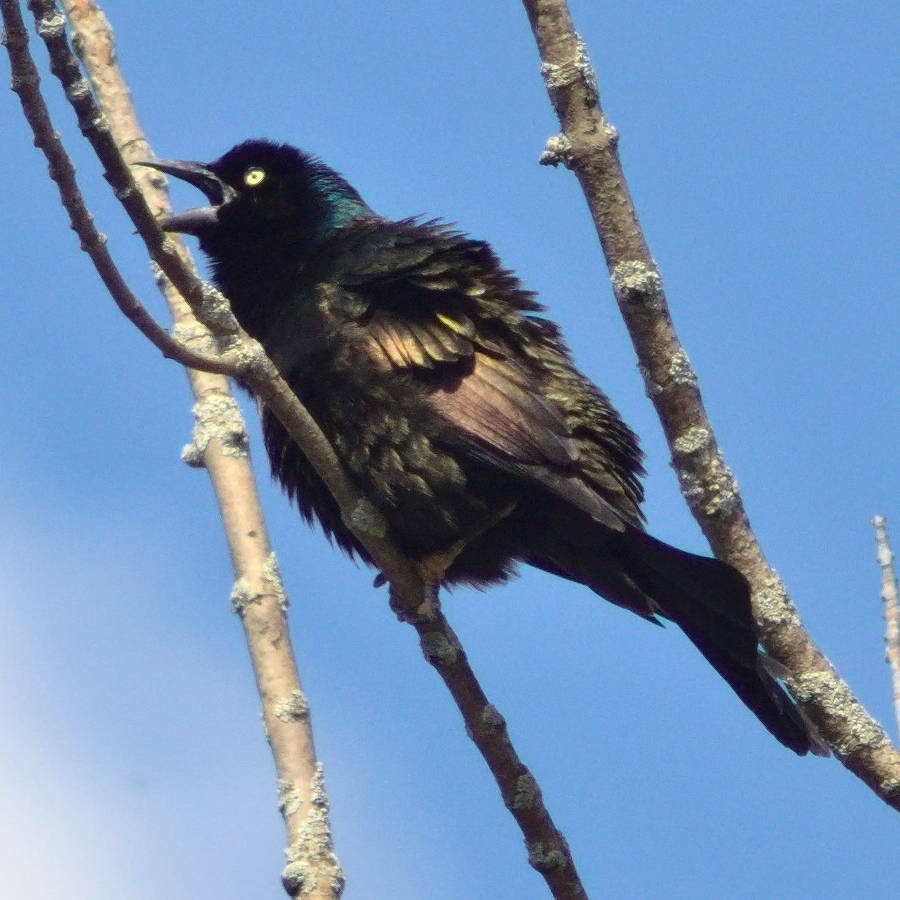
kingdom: Animalia
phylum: Chordata
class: Aves
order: Passeriformes
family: Icteridae
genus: Quiscalus
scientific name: Quiscalus quiscula
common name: Common grackle
